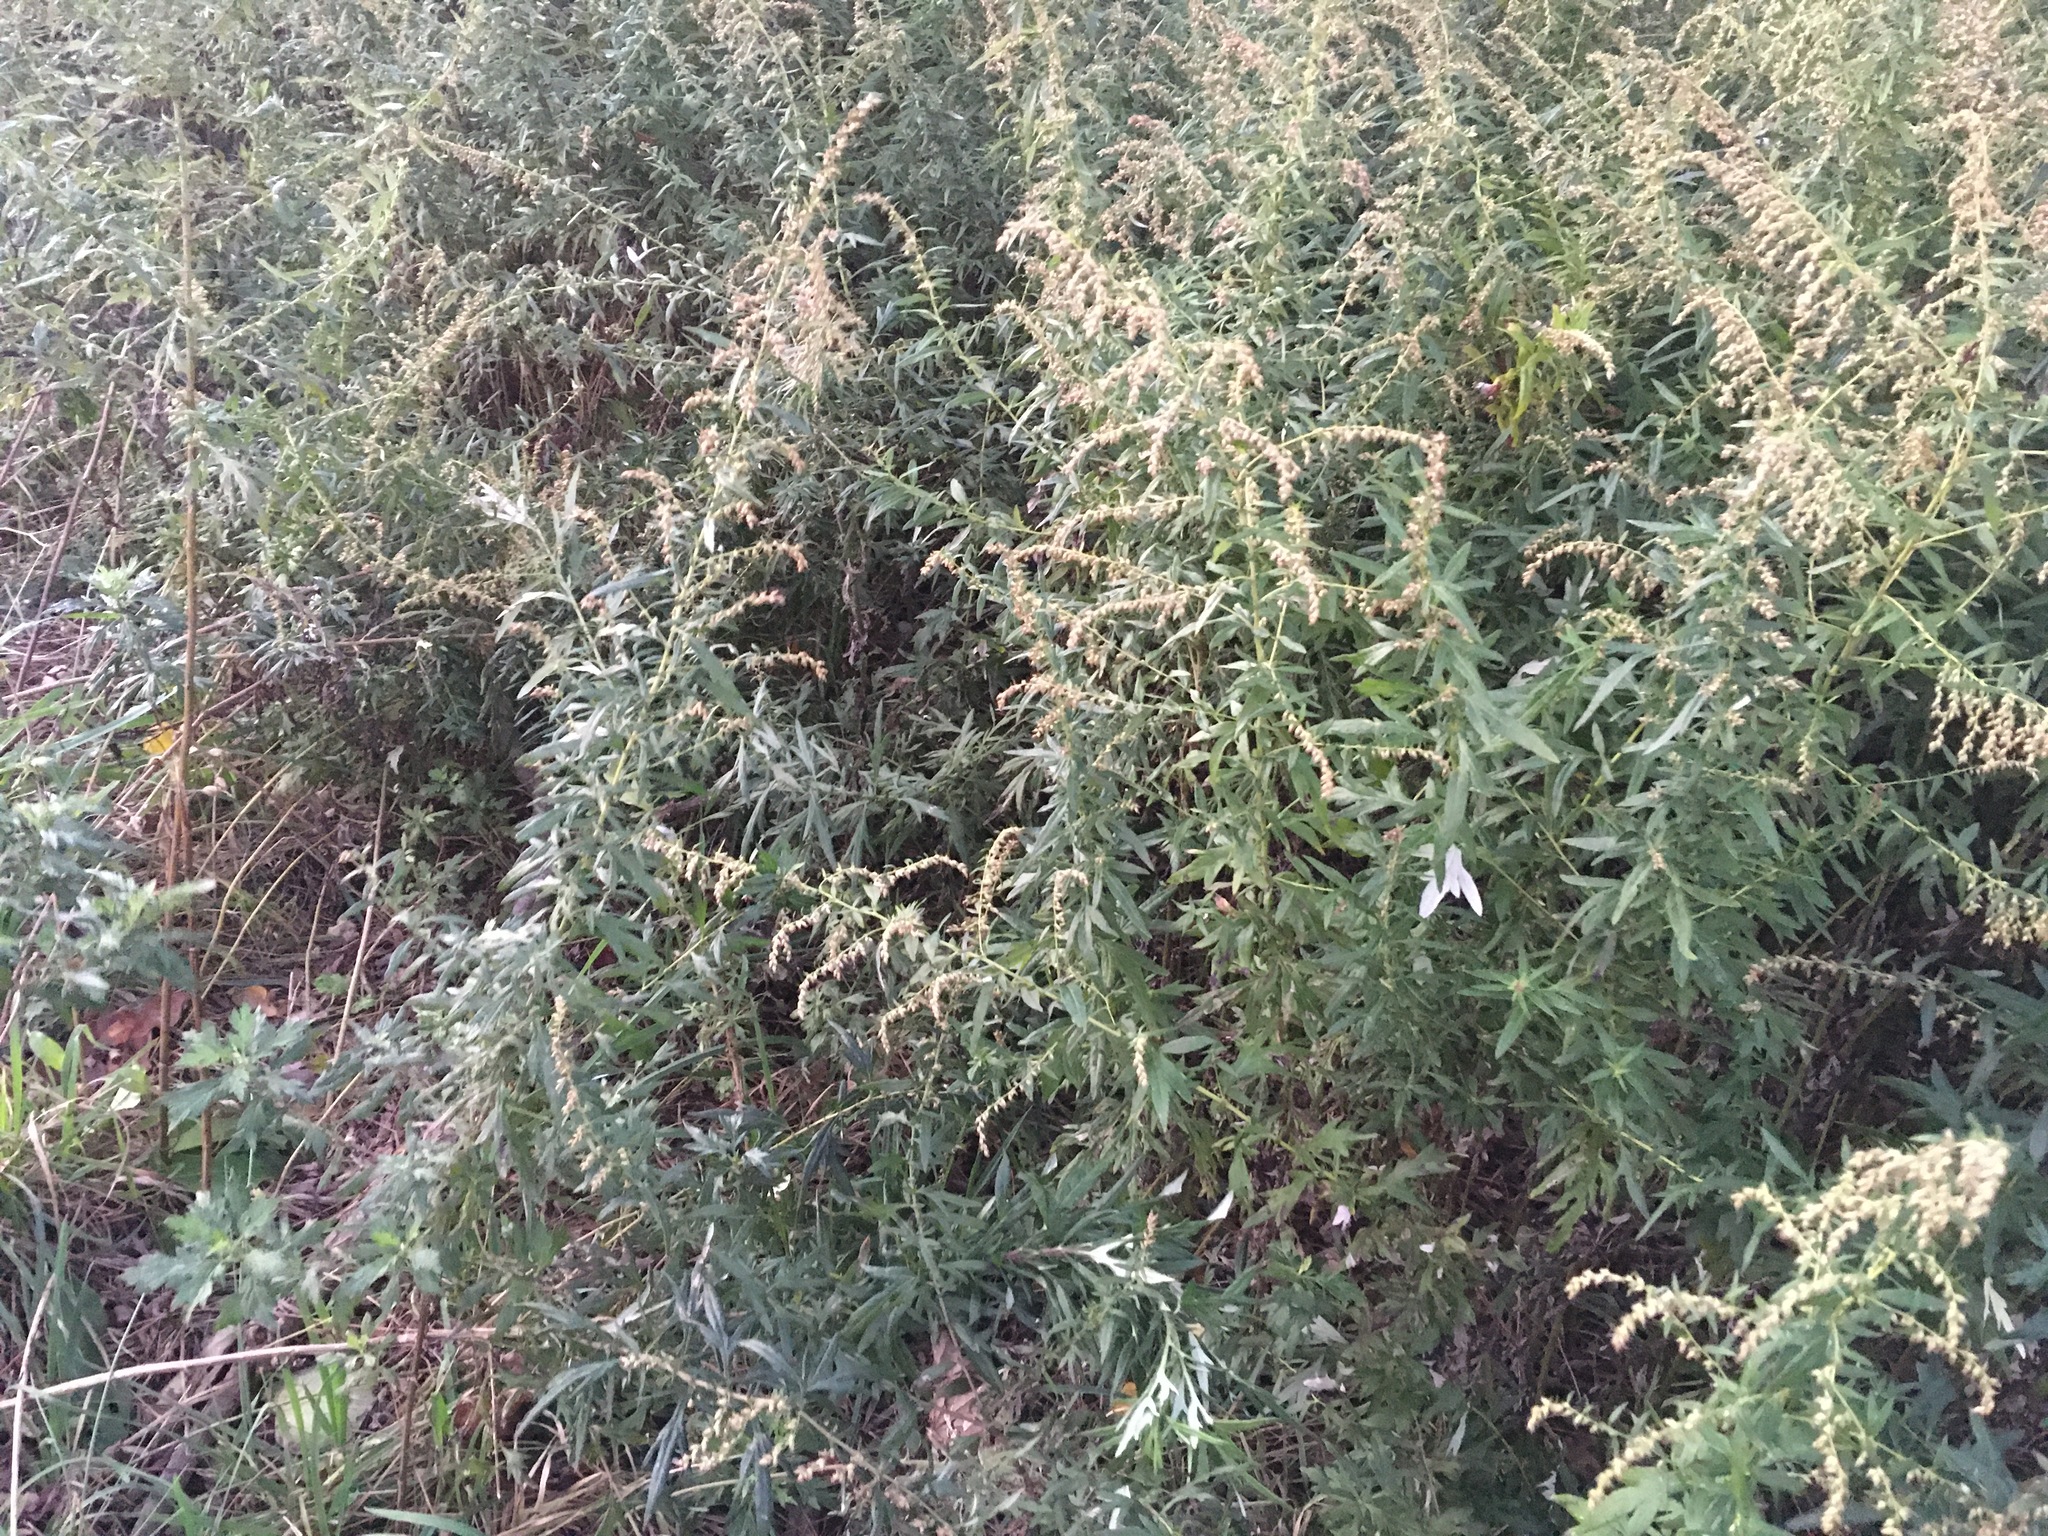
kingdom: Plantae
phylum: Tracheophyta
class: Magnoliopsida
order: Asterales
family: Asteraceae
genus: Artemisia
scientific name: Artemisia vulgaris
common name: Mugwort
